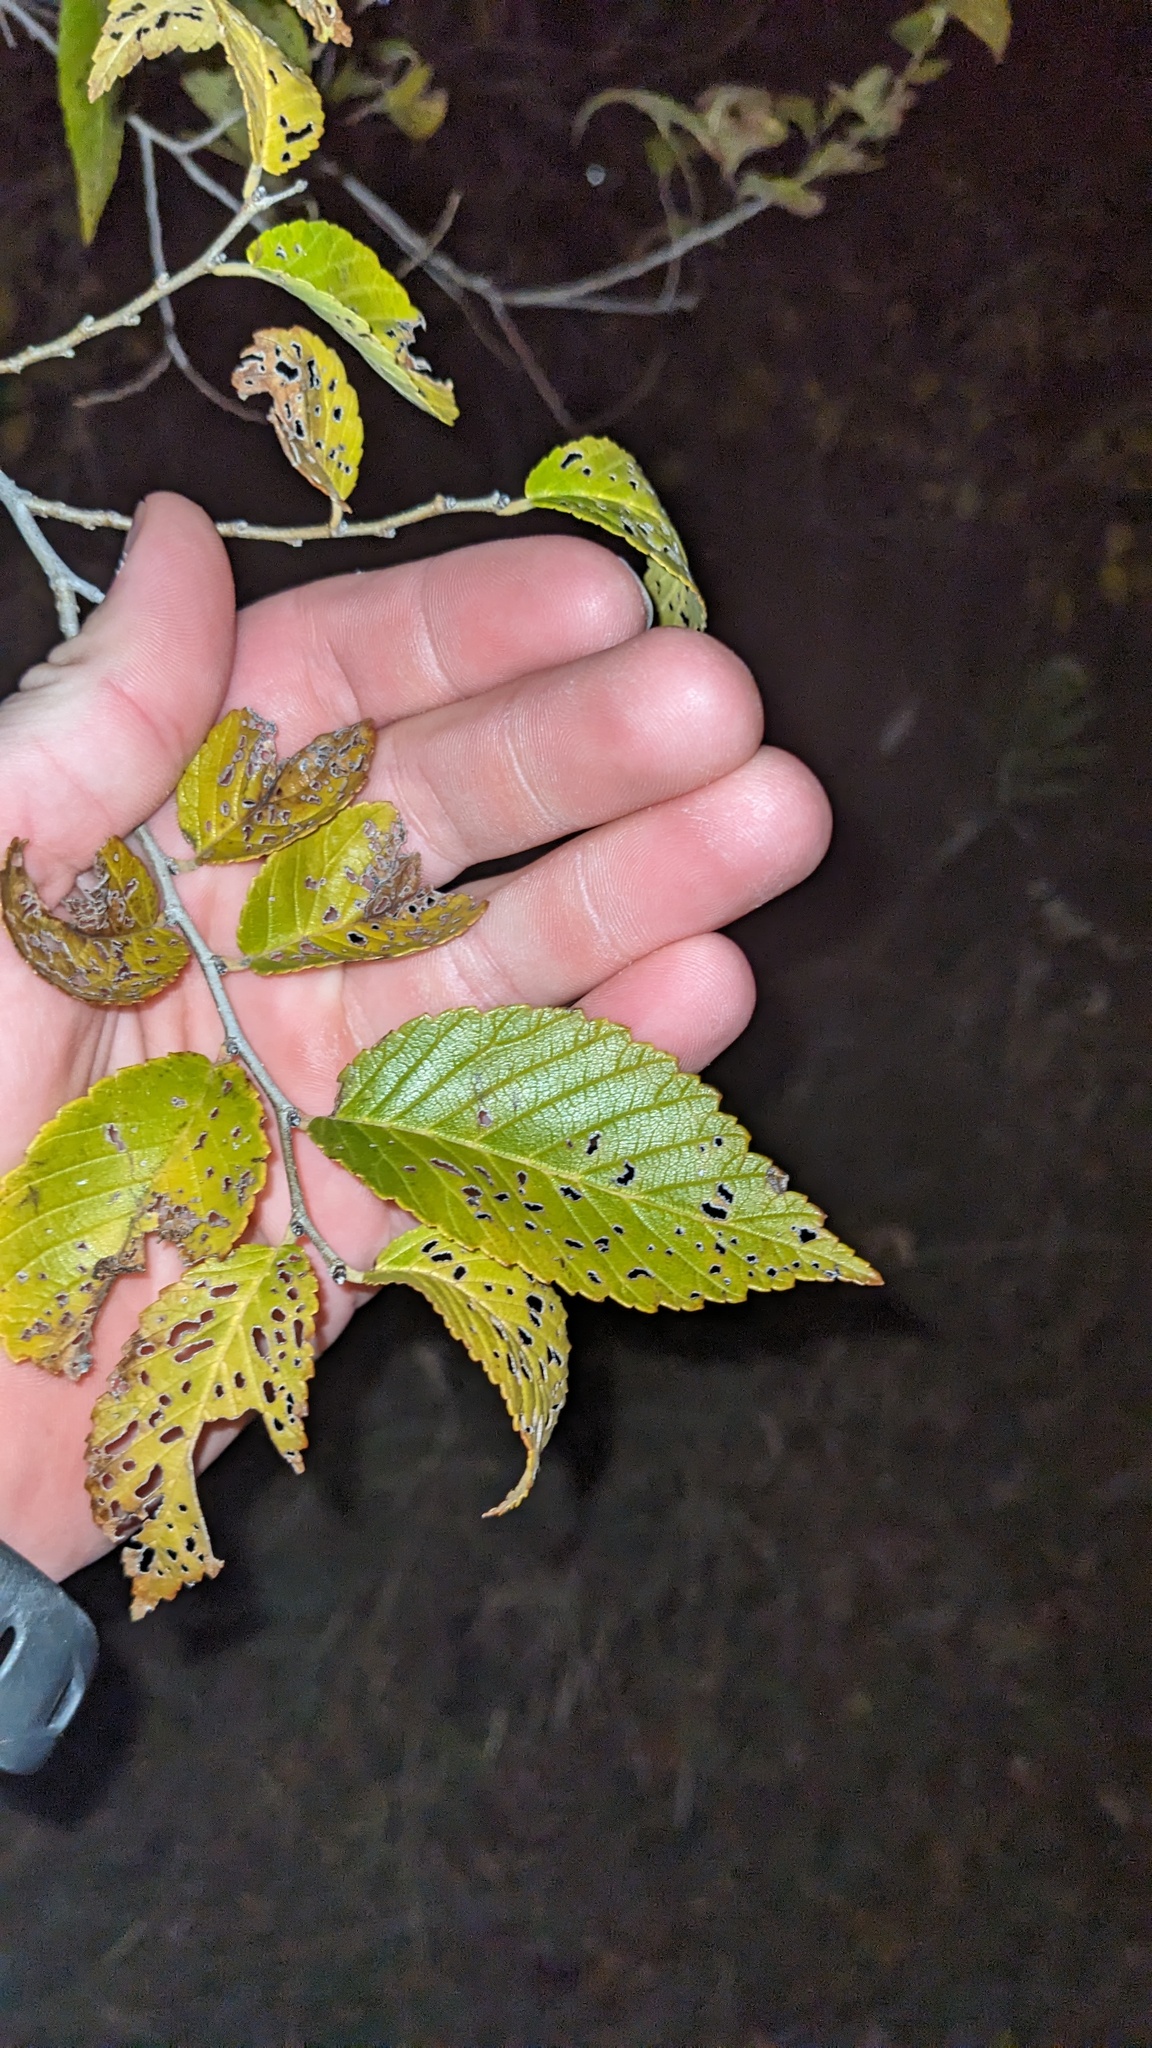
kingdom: Plantae
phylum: Tracheophyta
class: Magnoliopsida
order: Rosales
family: Ulmaceae
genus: Ulmus
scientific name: Ulmus pumila
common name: Siberian elm
